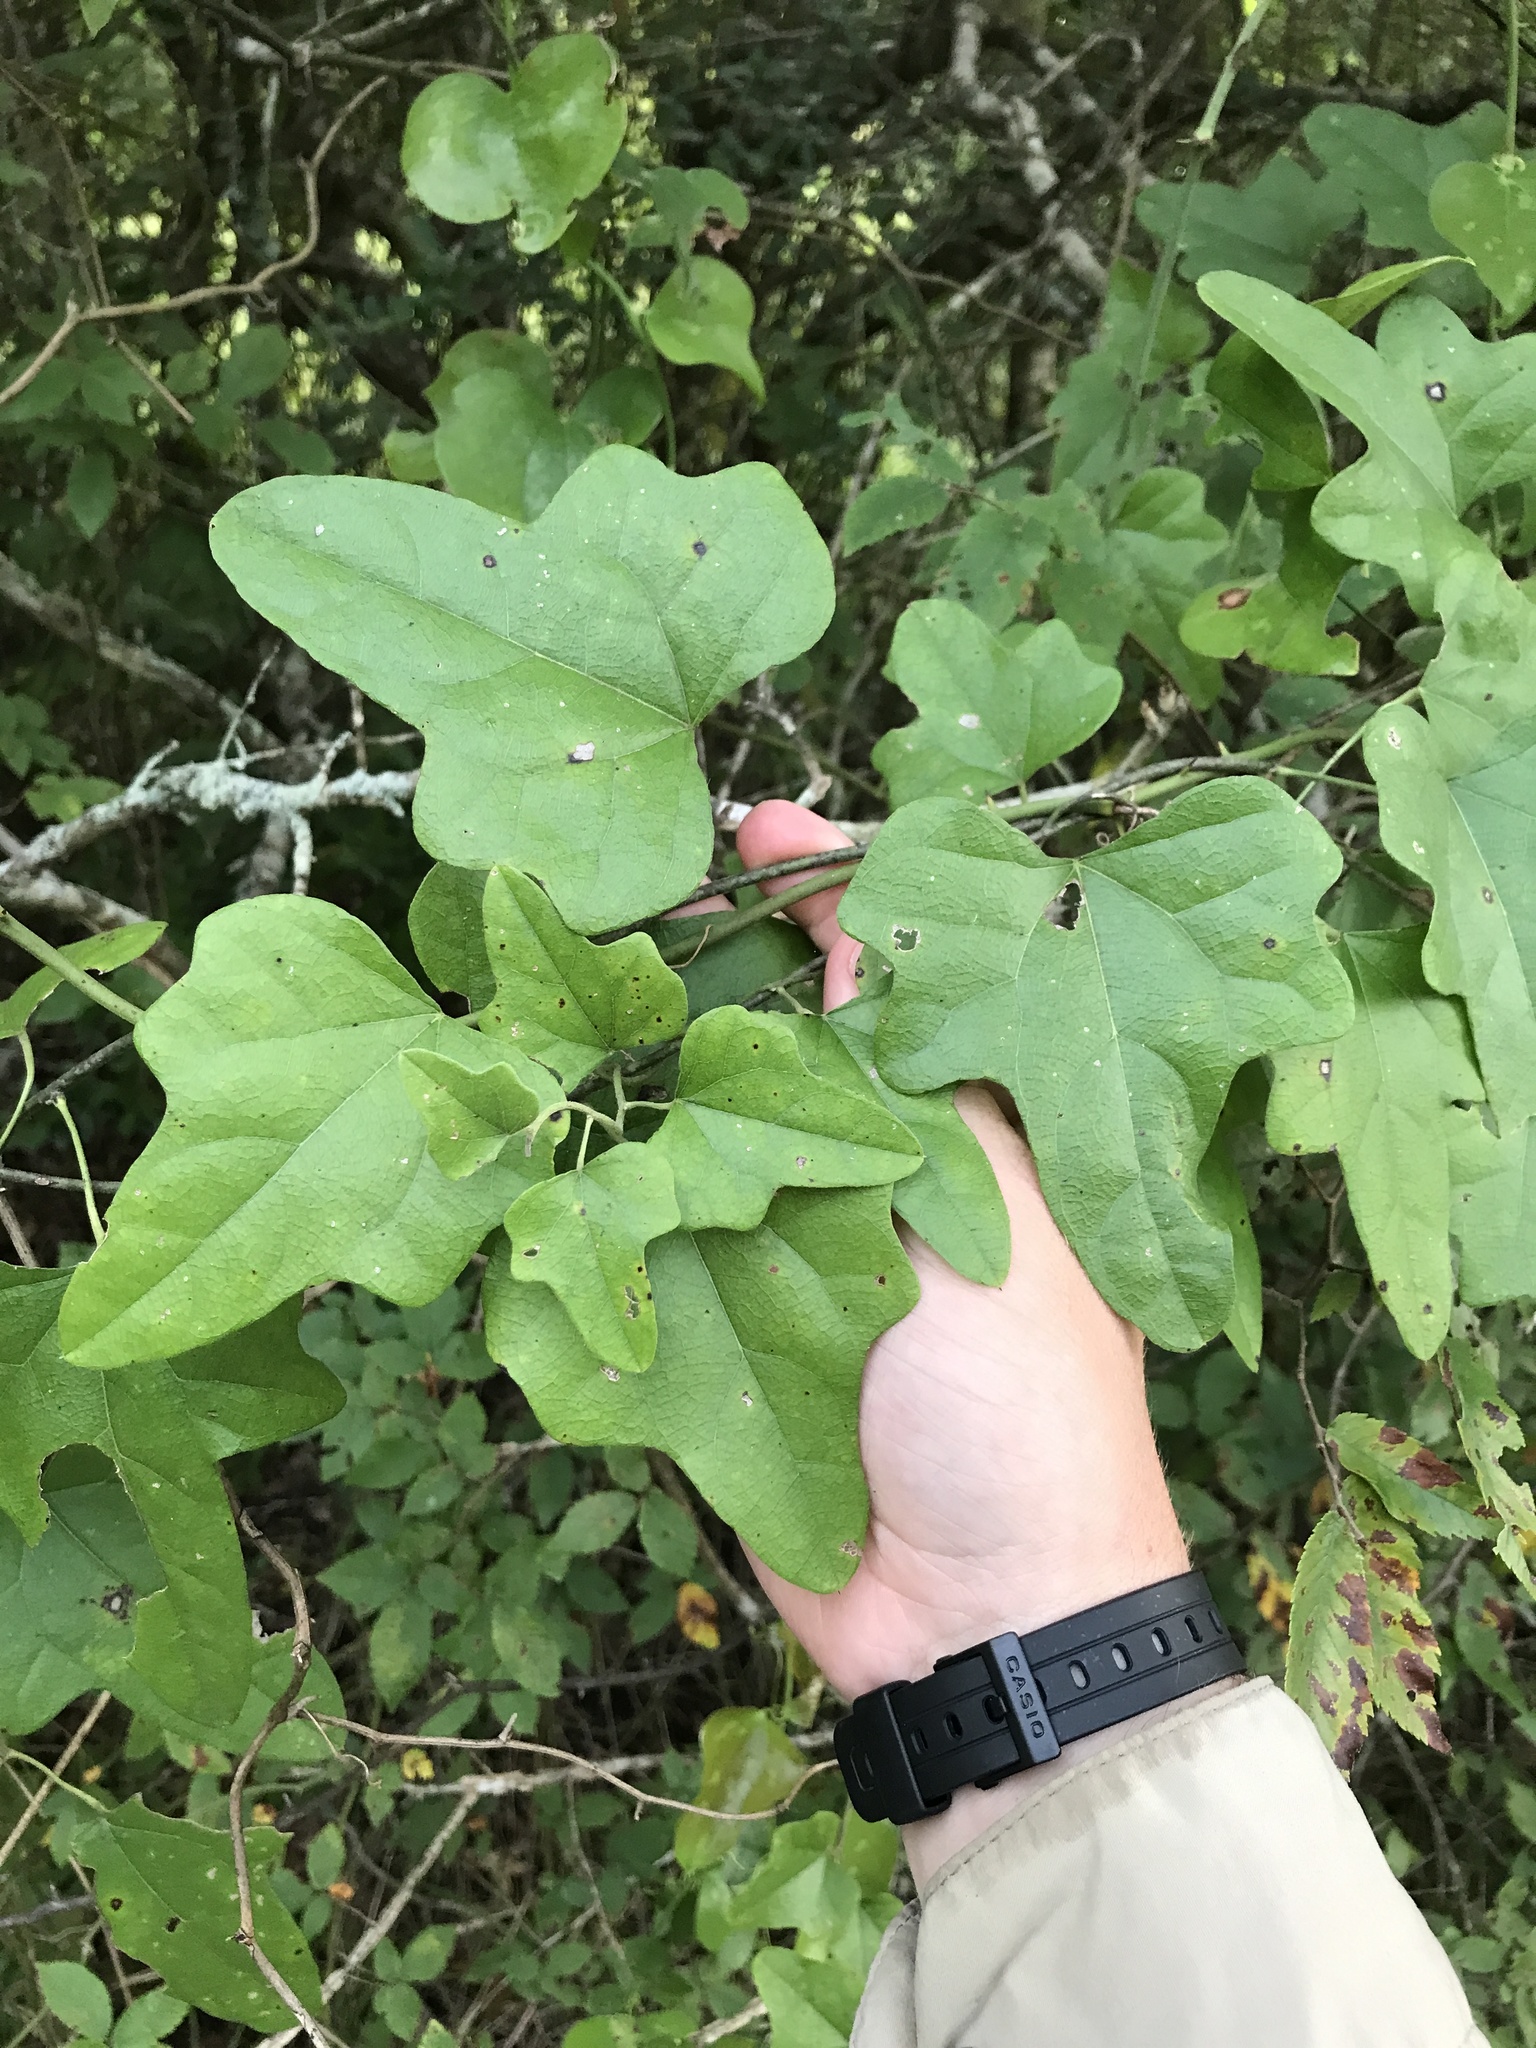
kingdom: Plantae
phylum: Tracheophyta
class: Magnoliopsida
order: Ranunculales
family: Menispermaceae
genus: Cocculus
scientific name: Cocculus carolinus
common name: Carolina moonseed
